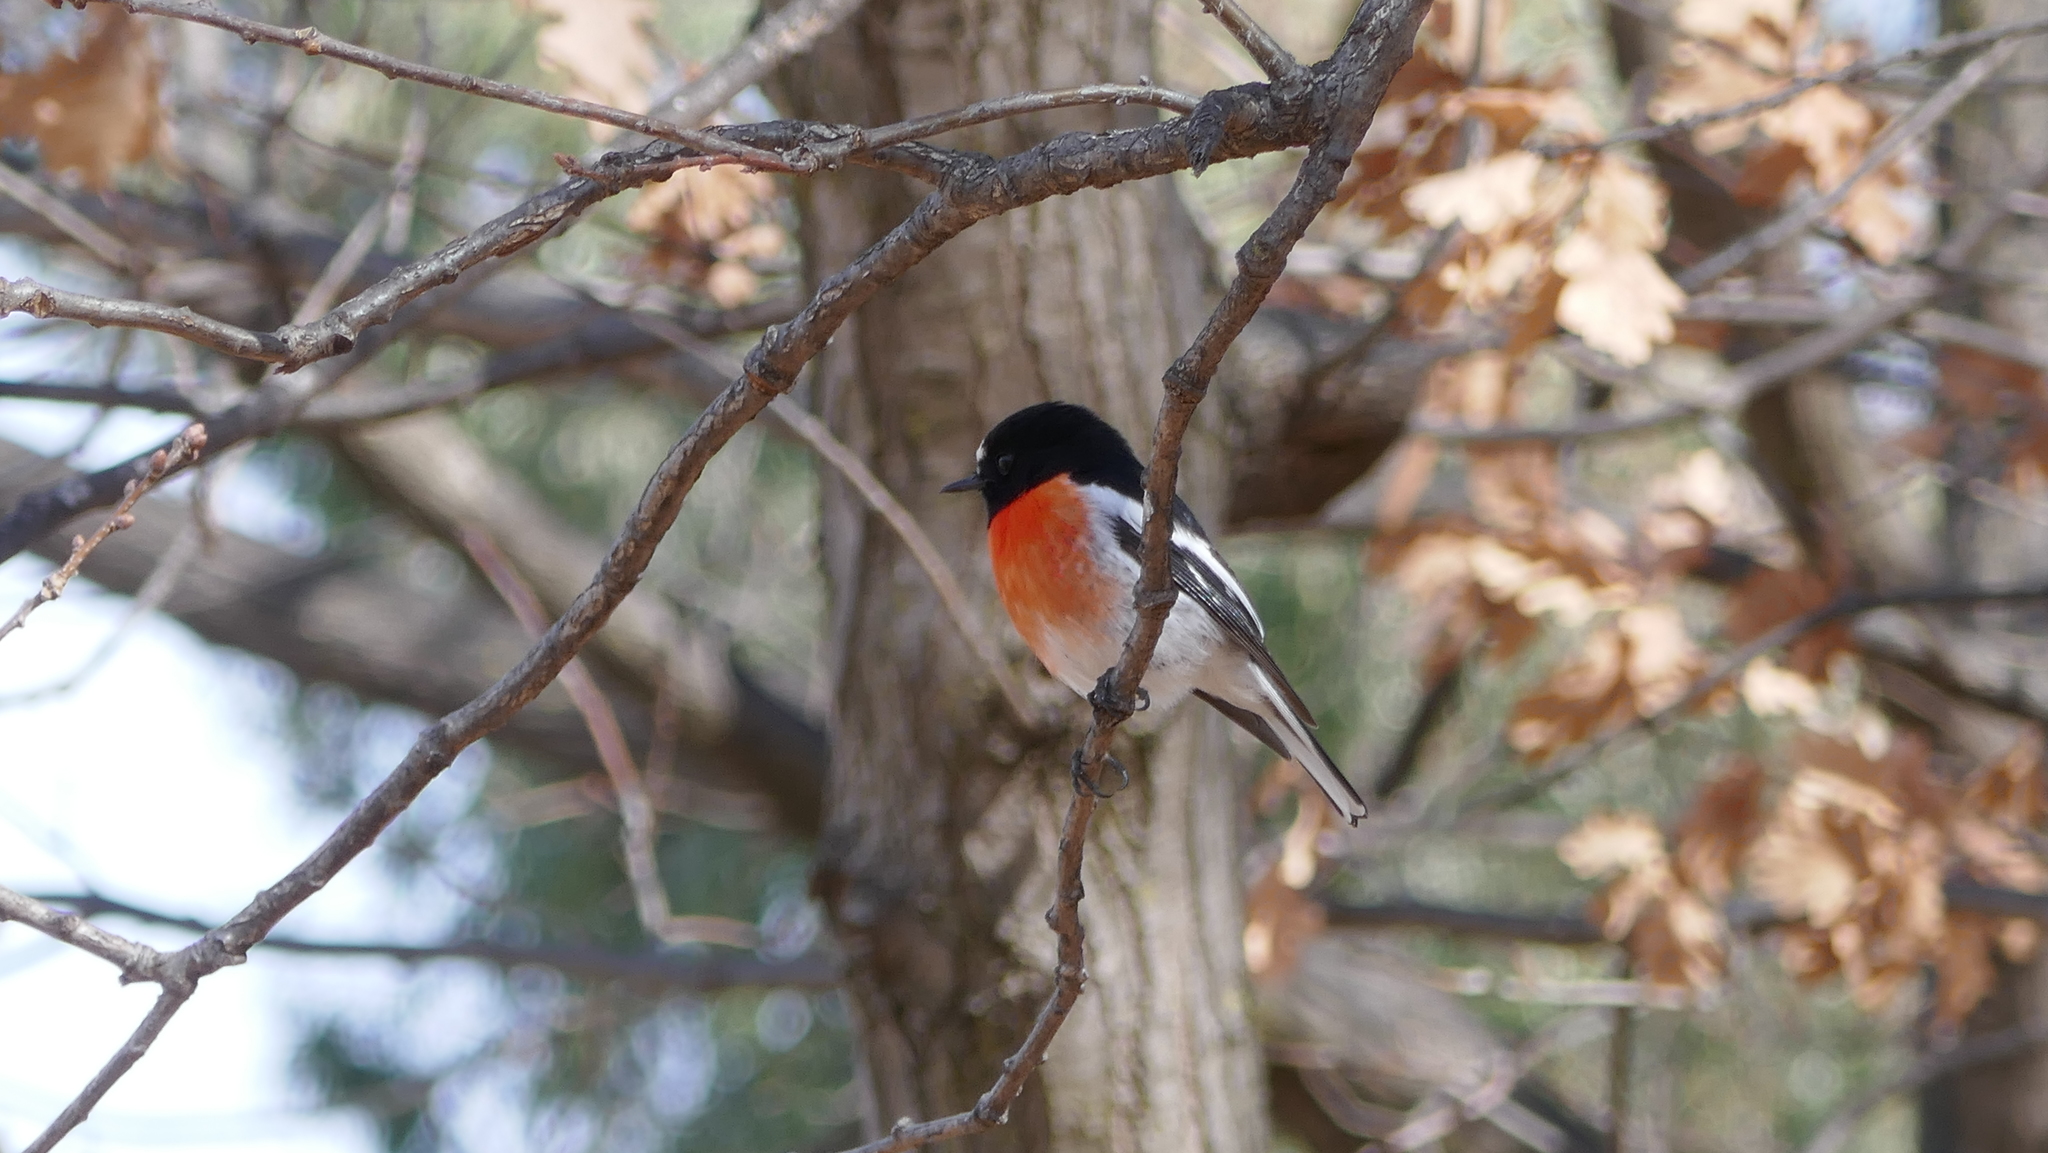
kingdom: Animalia
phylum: Chordata
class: Aves
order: Passeriformes
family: Petroicidae
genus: Petroica
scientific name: Petroica boodang
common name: Scarlet robin
